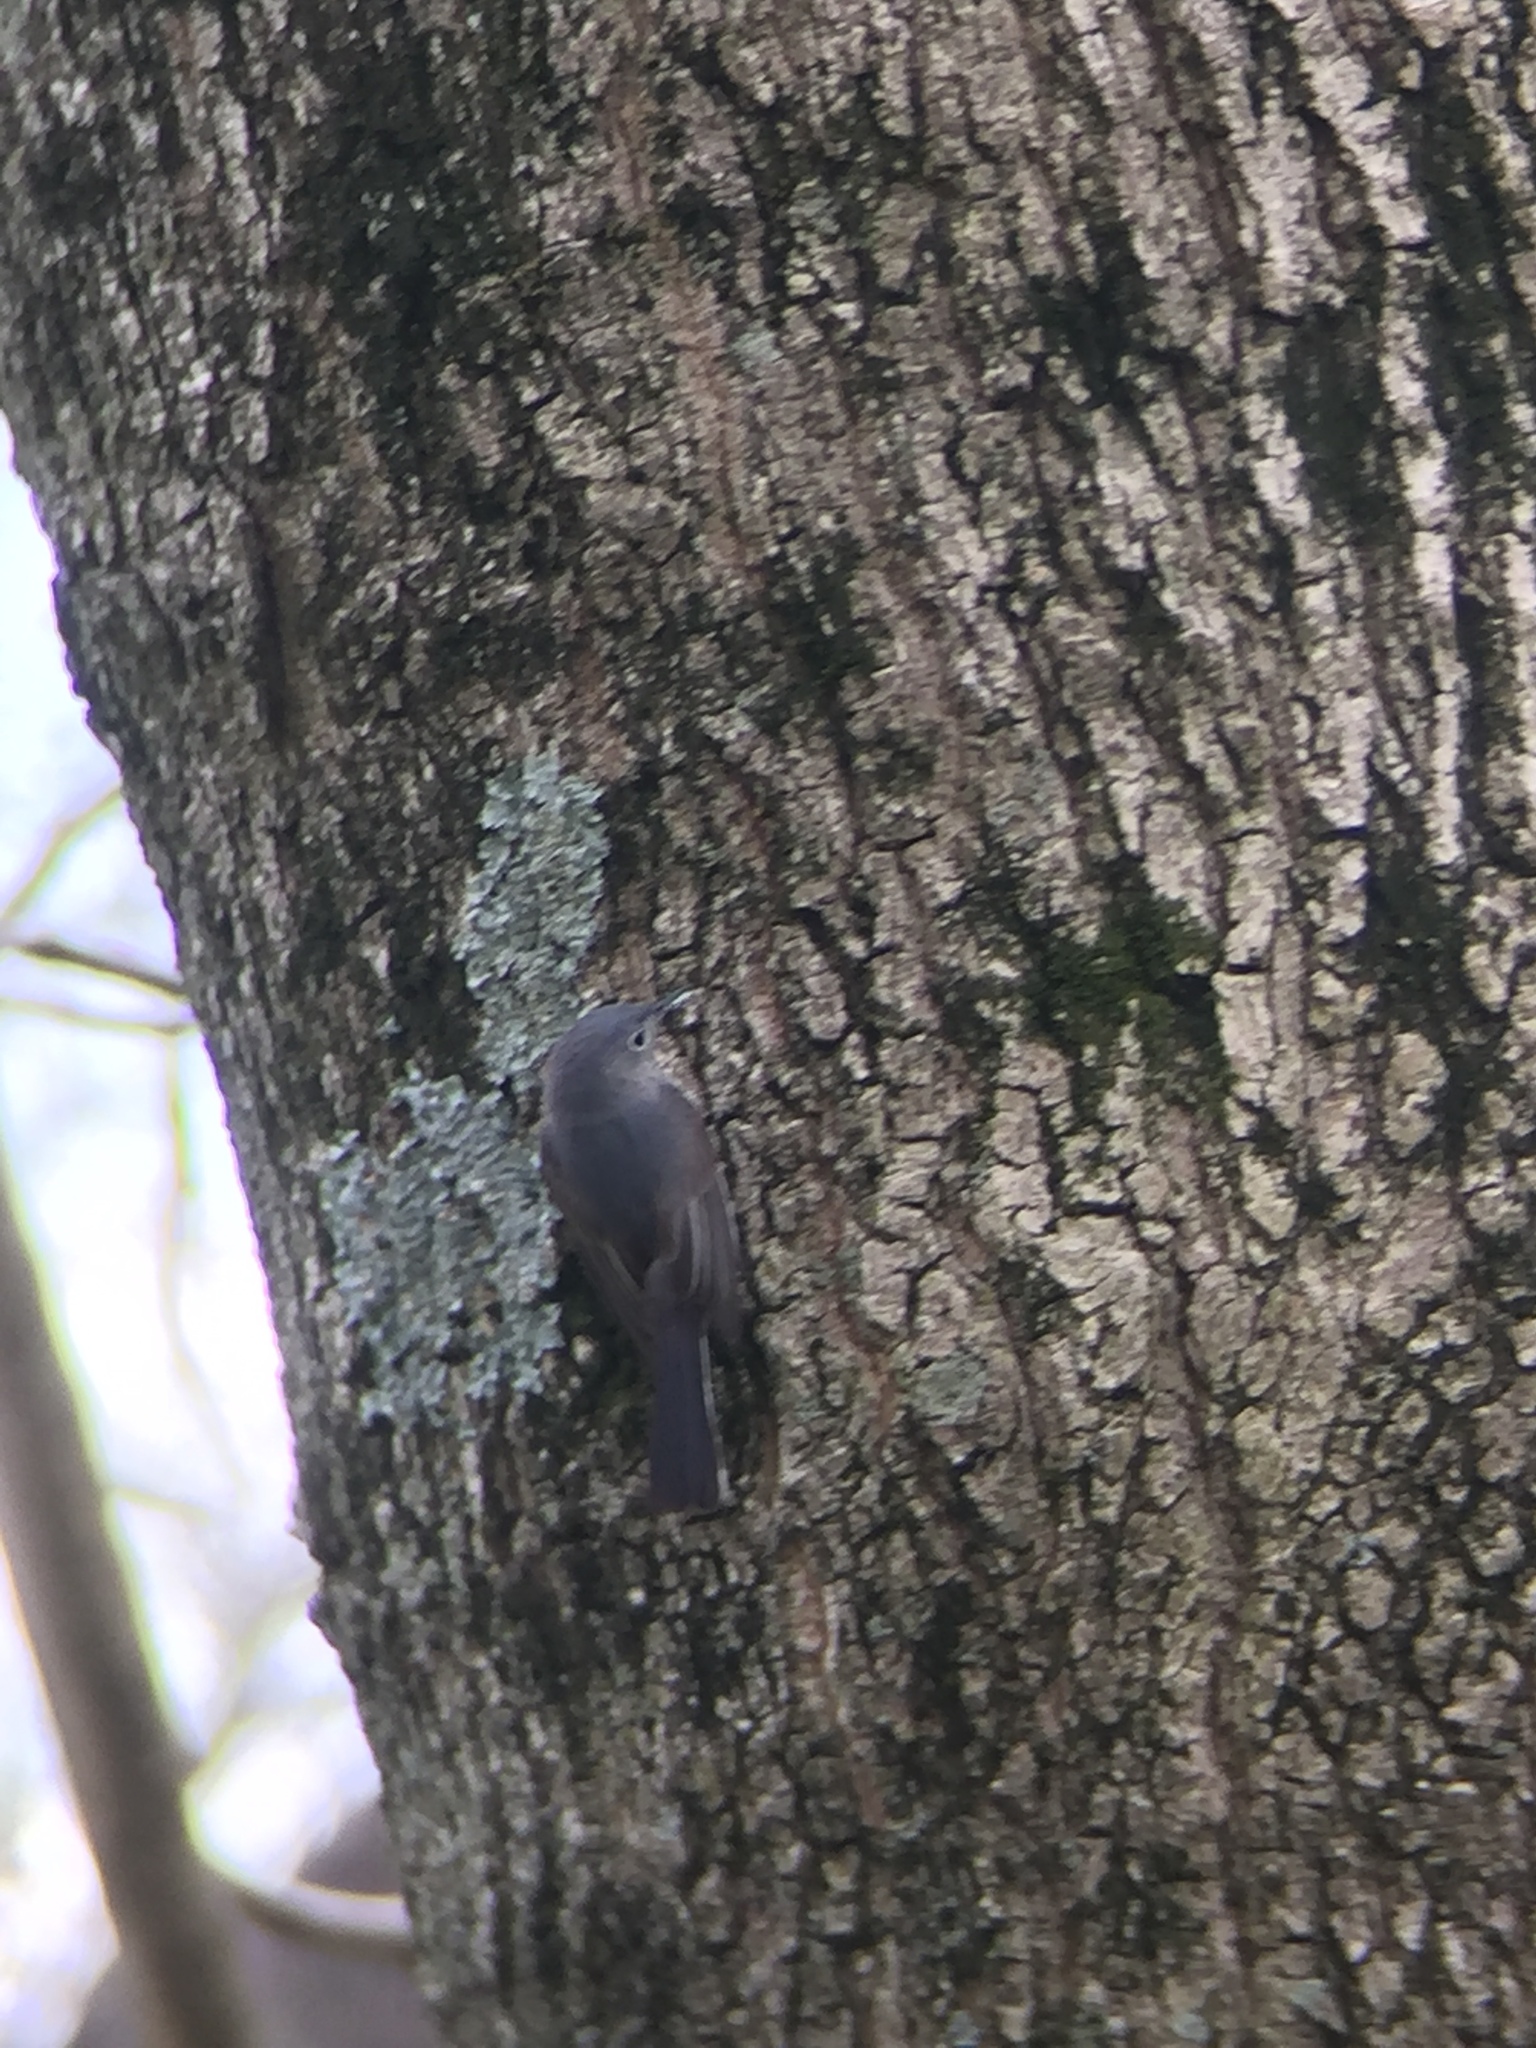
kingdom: Animalia
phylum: Chordata
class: Aves
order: Passeriformes
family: Polioptilidae
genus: Polioptila
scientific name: Polioptila caerulea
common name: Blue-gray gnatcatcher
